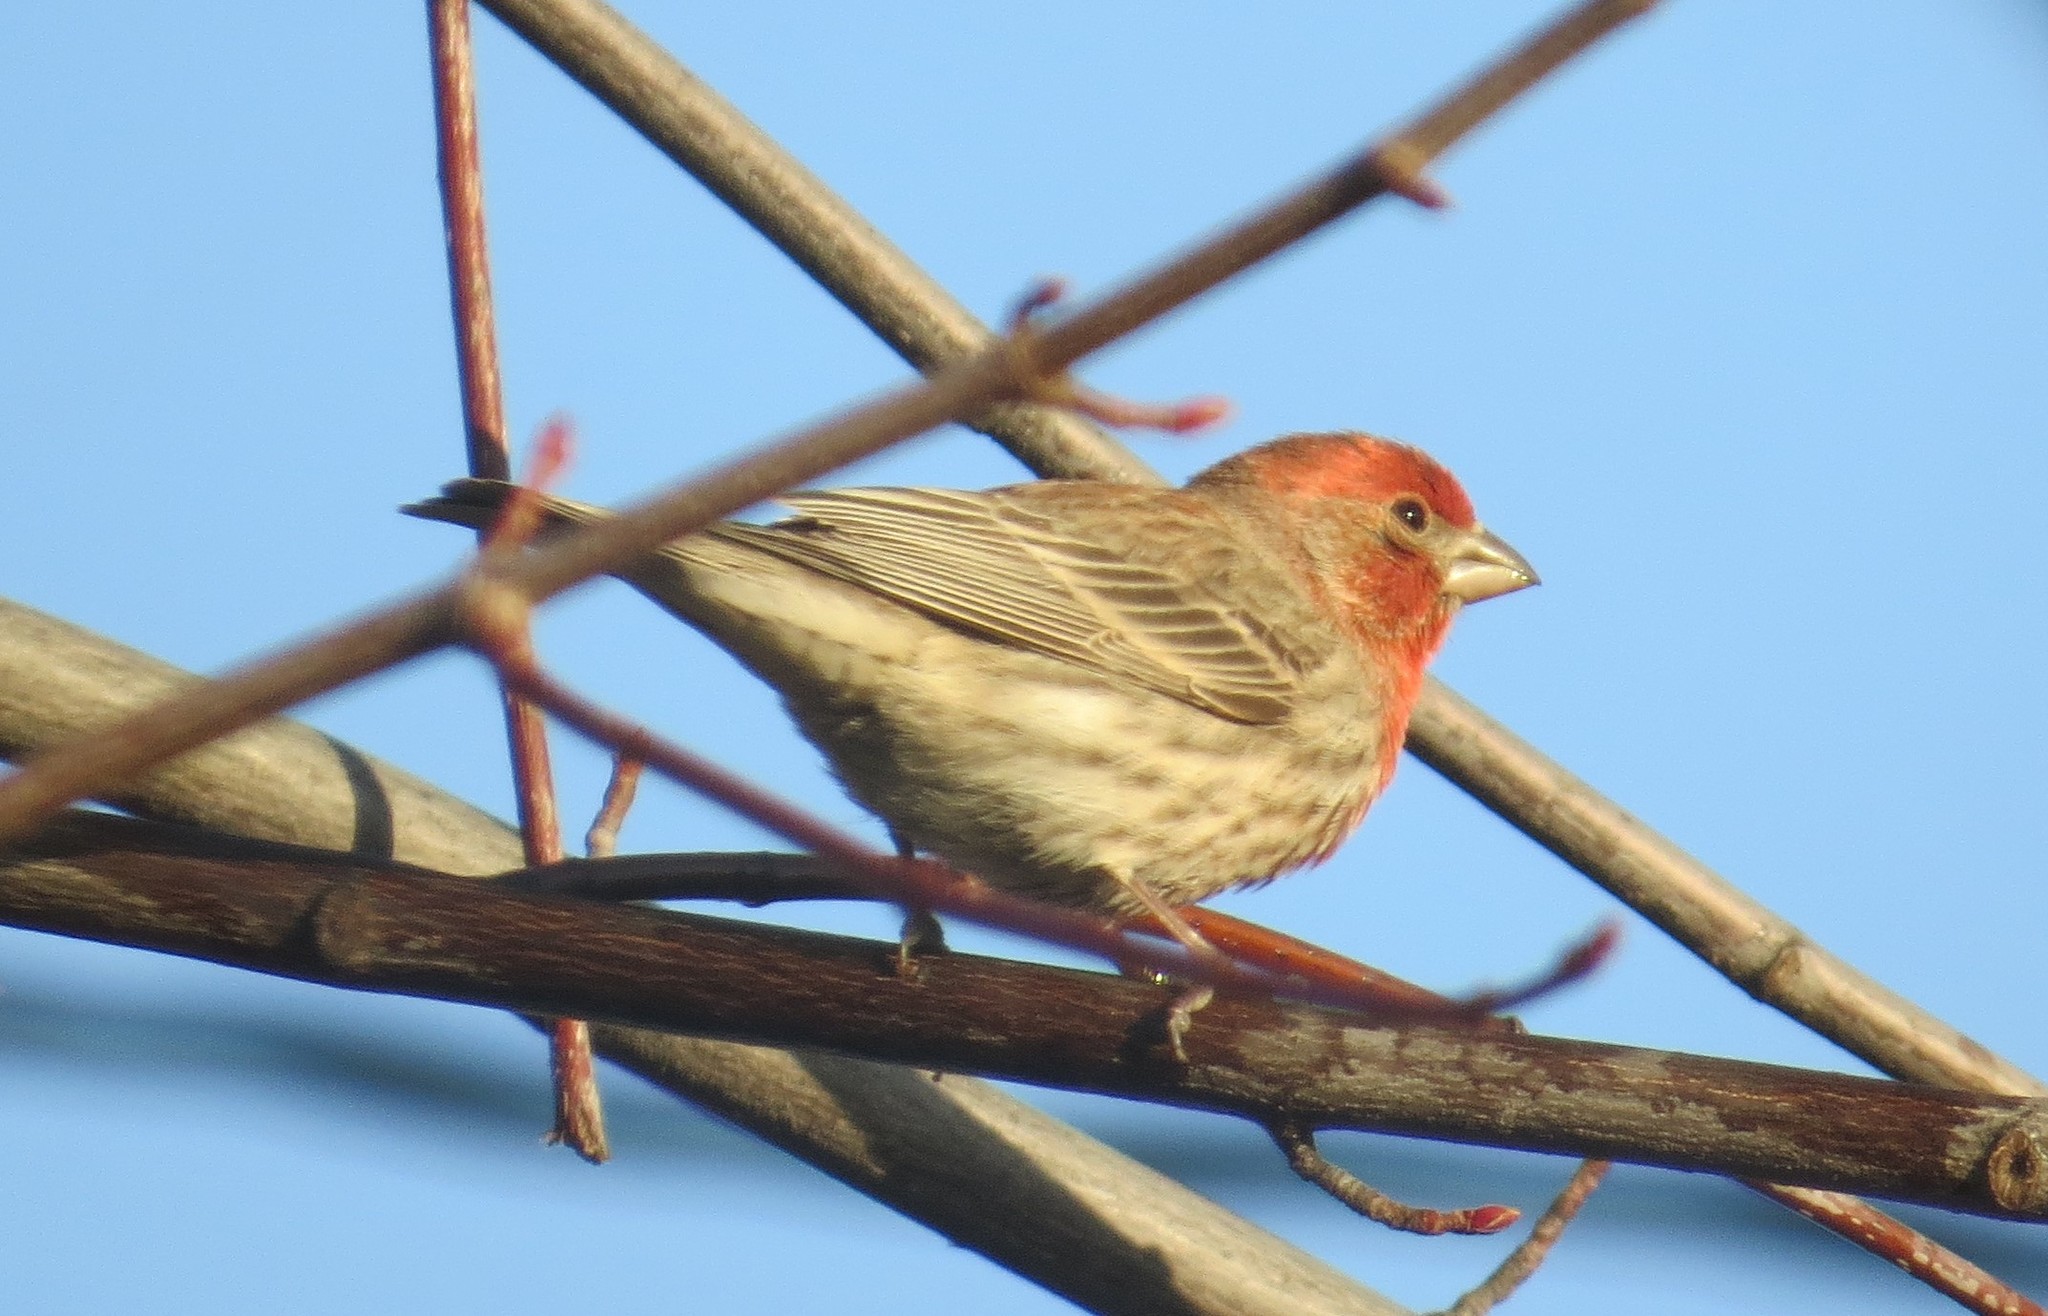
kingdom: Animalia
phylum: Chordata
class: Aves
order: Passeriformes
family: Fringillidae
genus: Haemorhous
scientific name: Haemorhous mexicanus
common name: House finch
